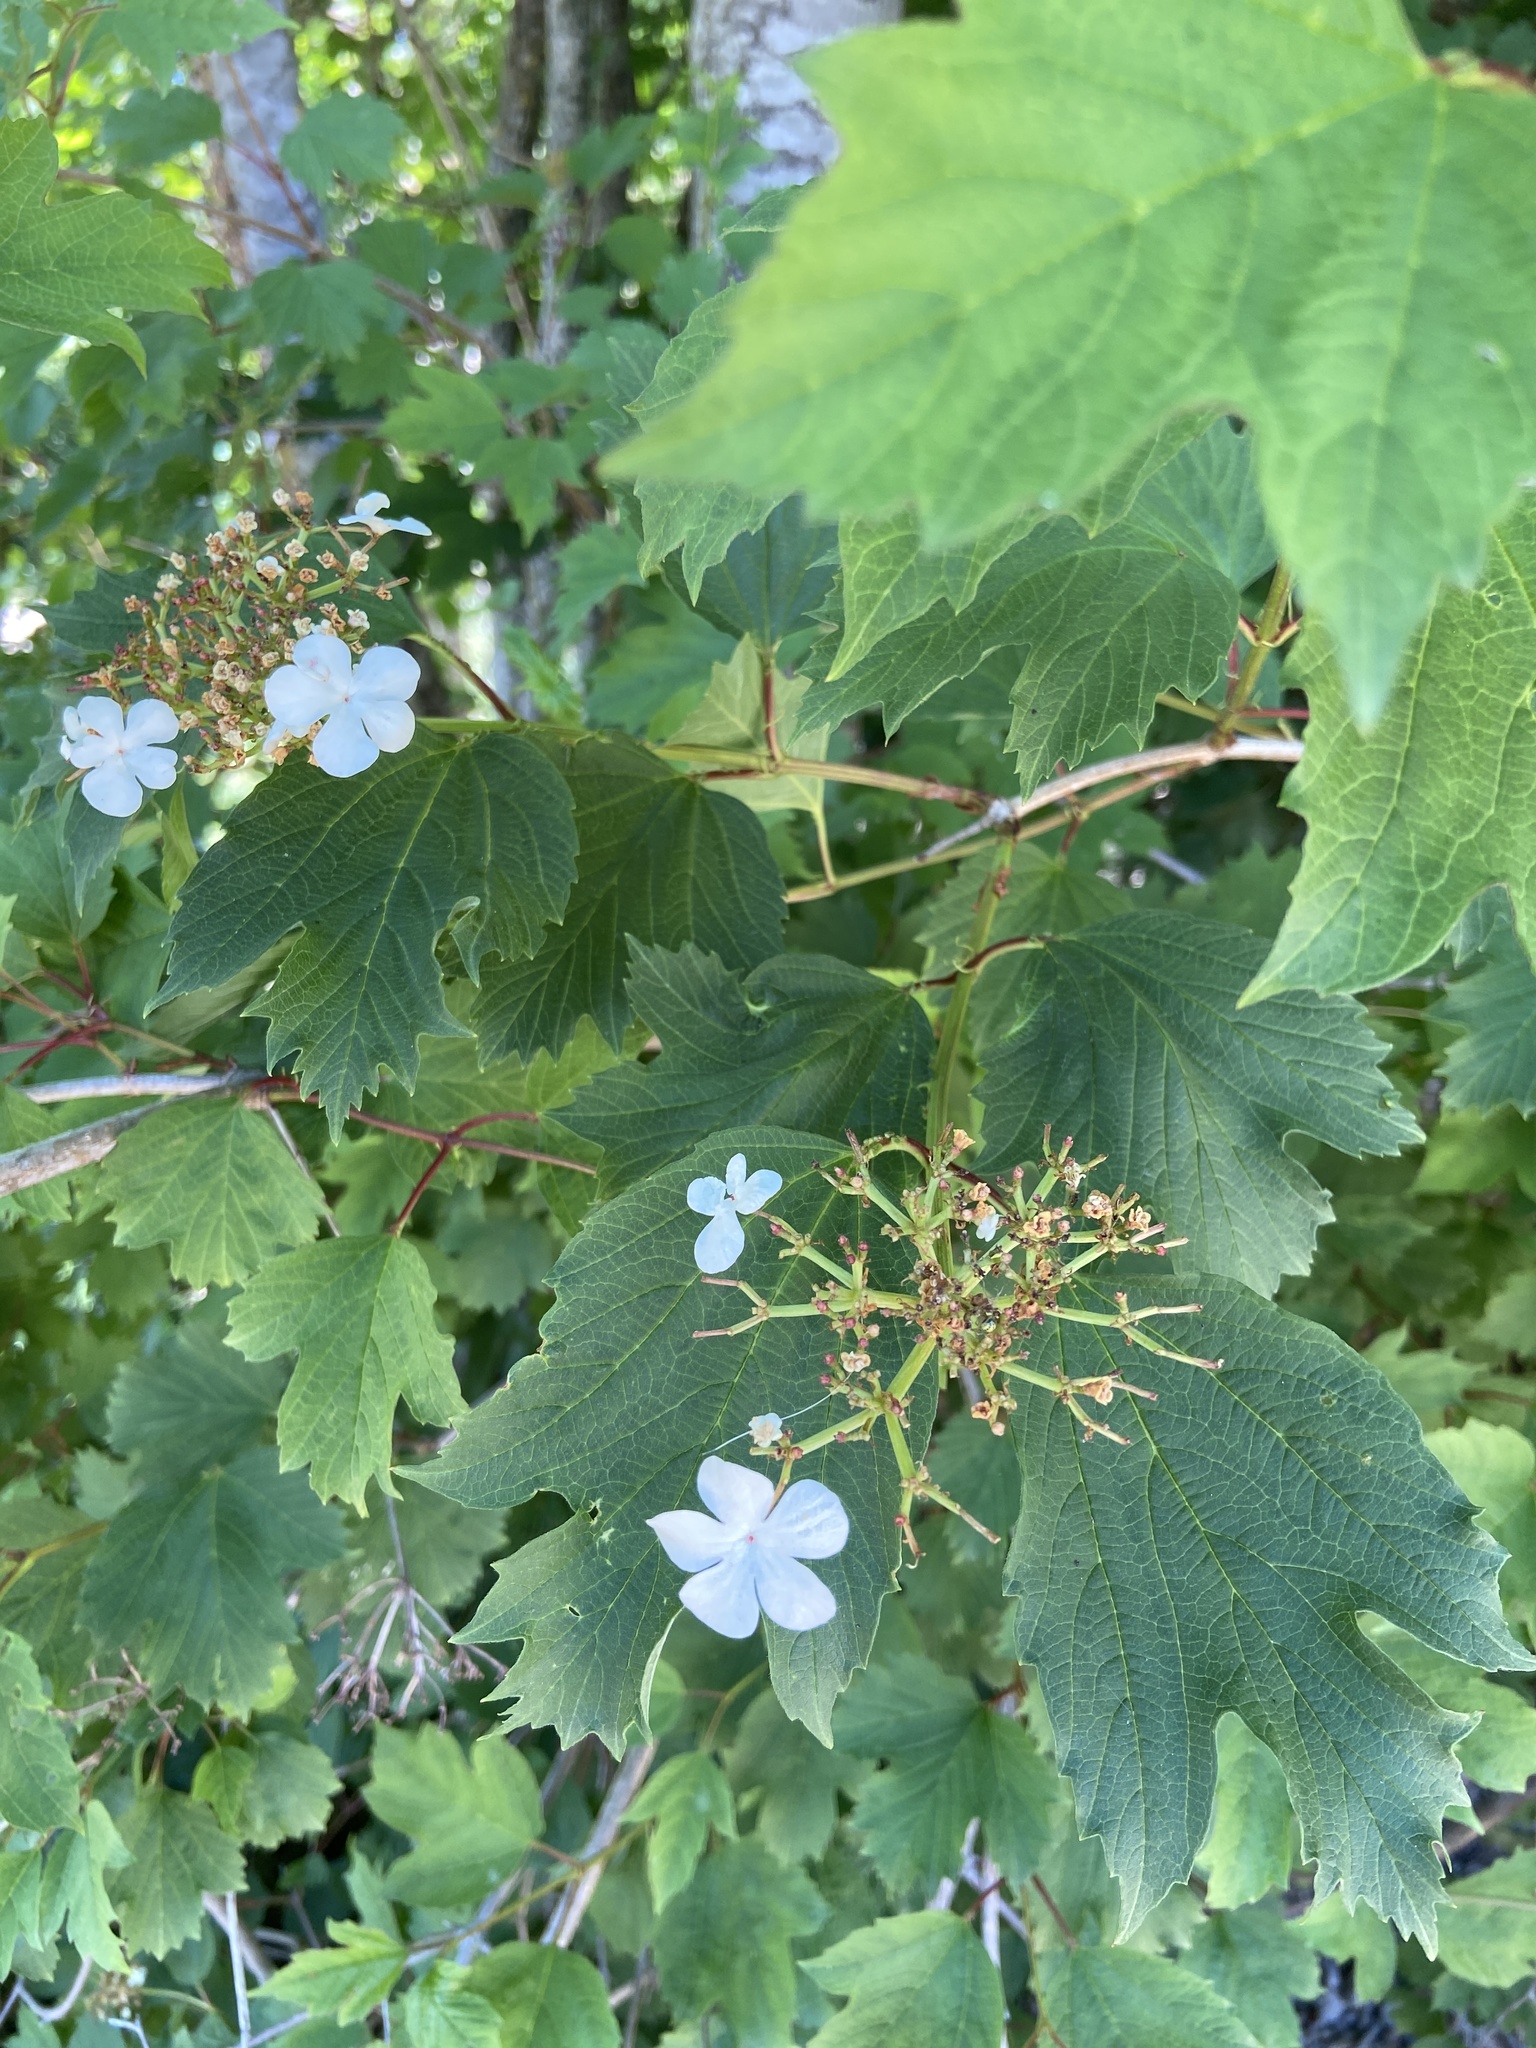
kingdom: Plantae
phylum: Tracheophyta
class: Magnoliopsida
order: Dipsacales
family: Viburnaceae
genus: Viburnum
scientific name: Viburnum opulus
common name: Guelder-rose
